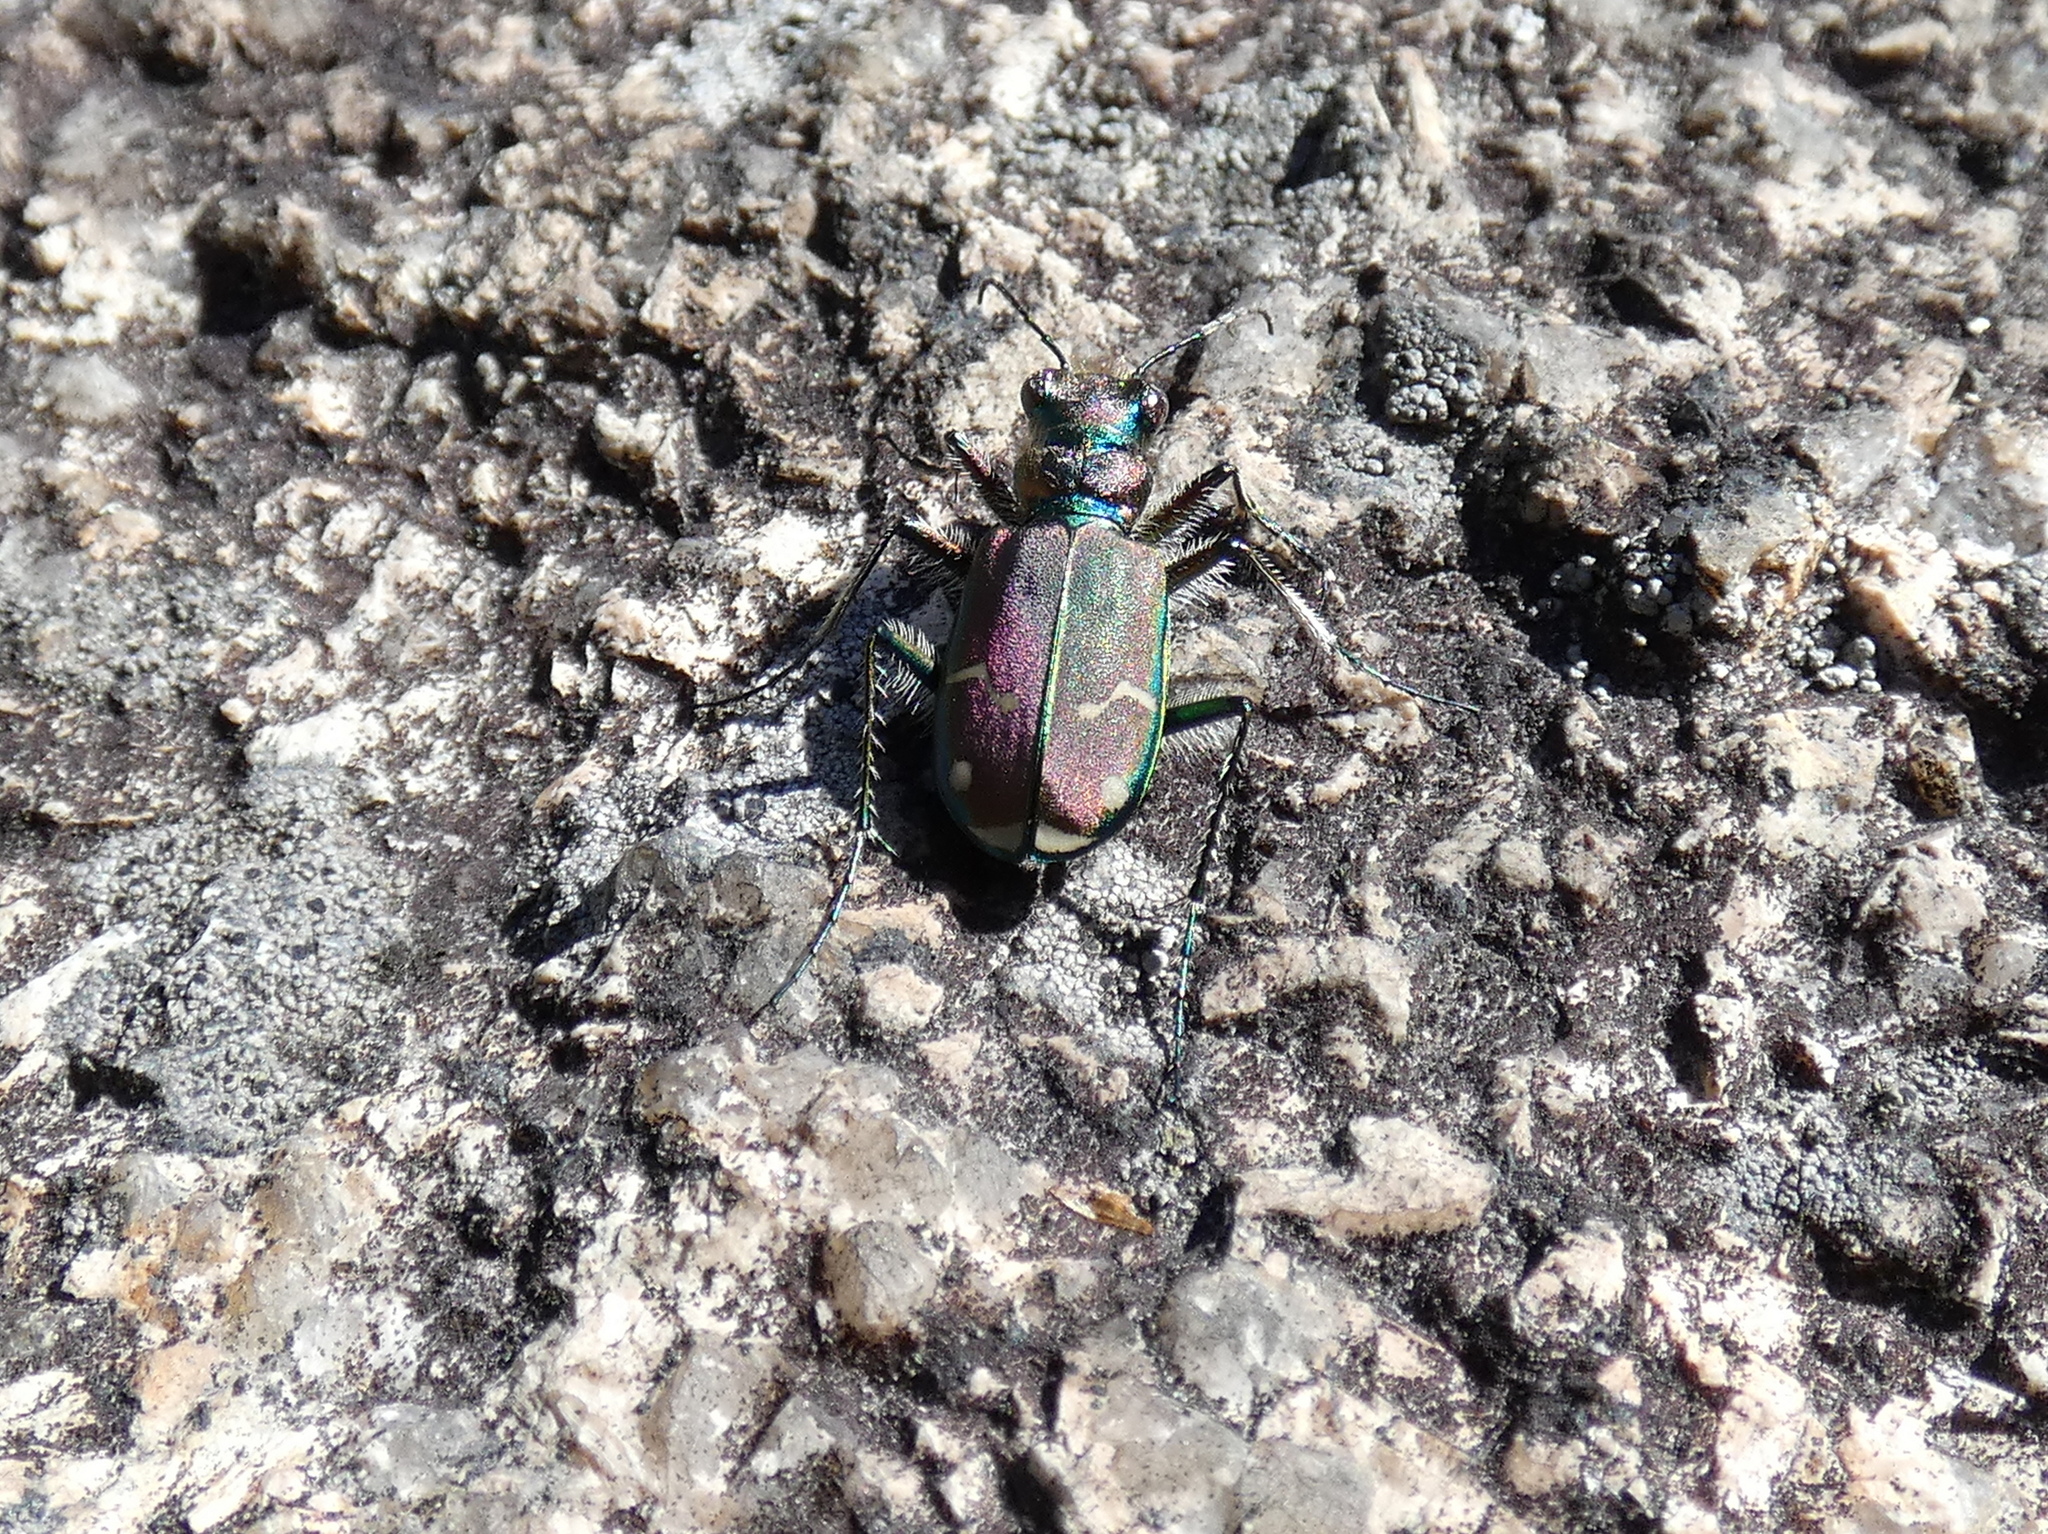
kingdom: Animalia
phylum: Arthropoda
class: Insecta
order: Coleoptera
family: Carabidae
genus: Cicindela
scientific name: Cicindela limbalis
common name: Common claybank tiger beetle
